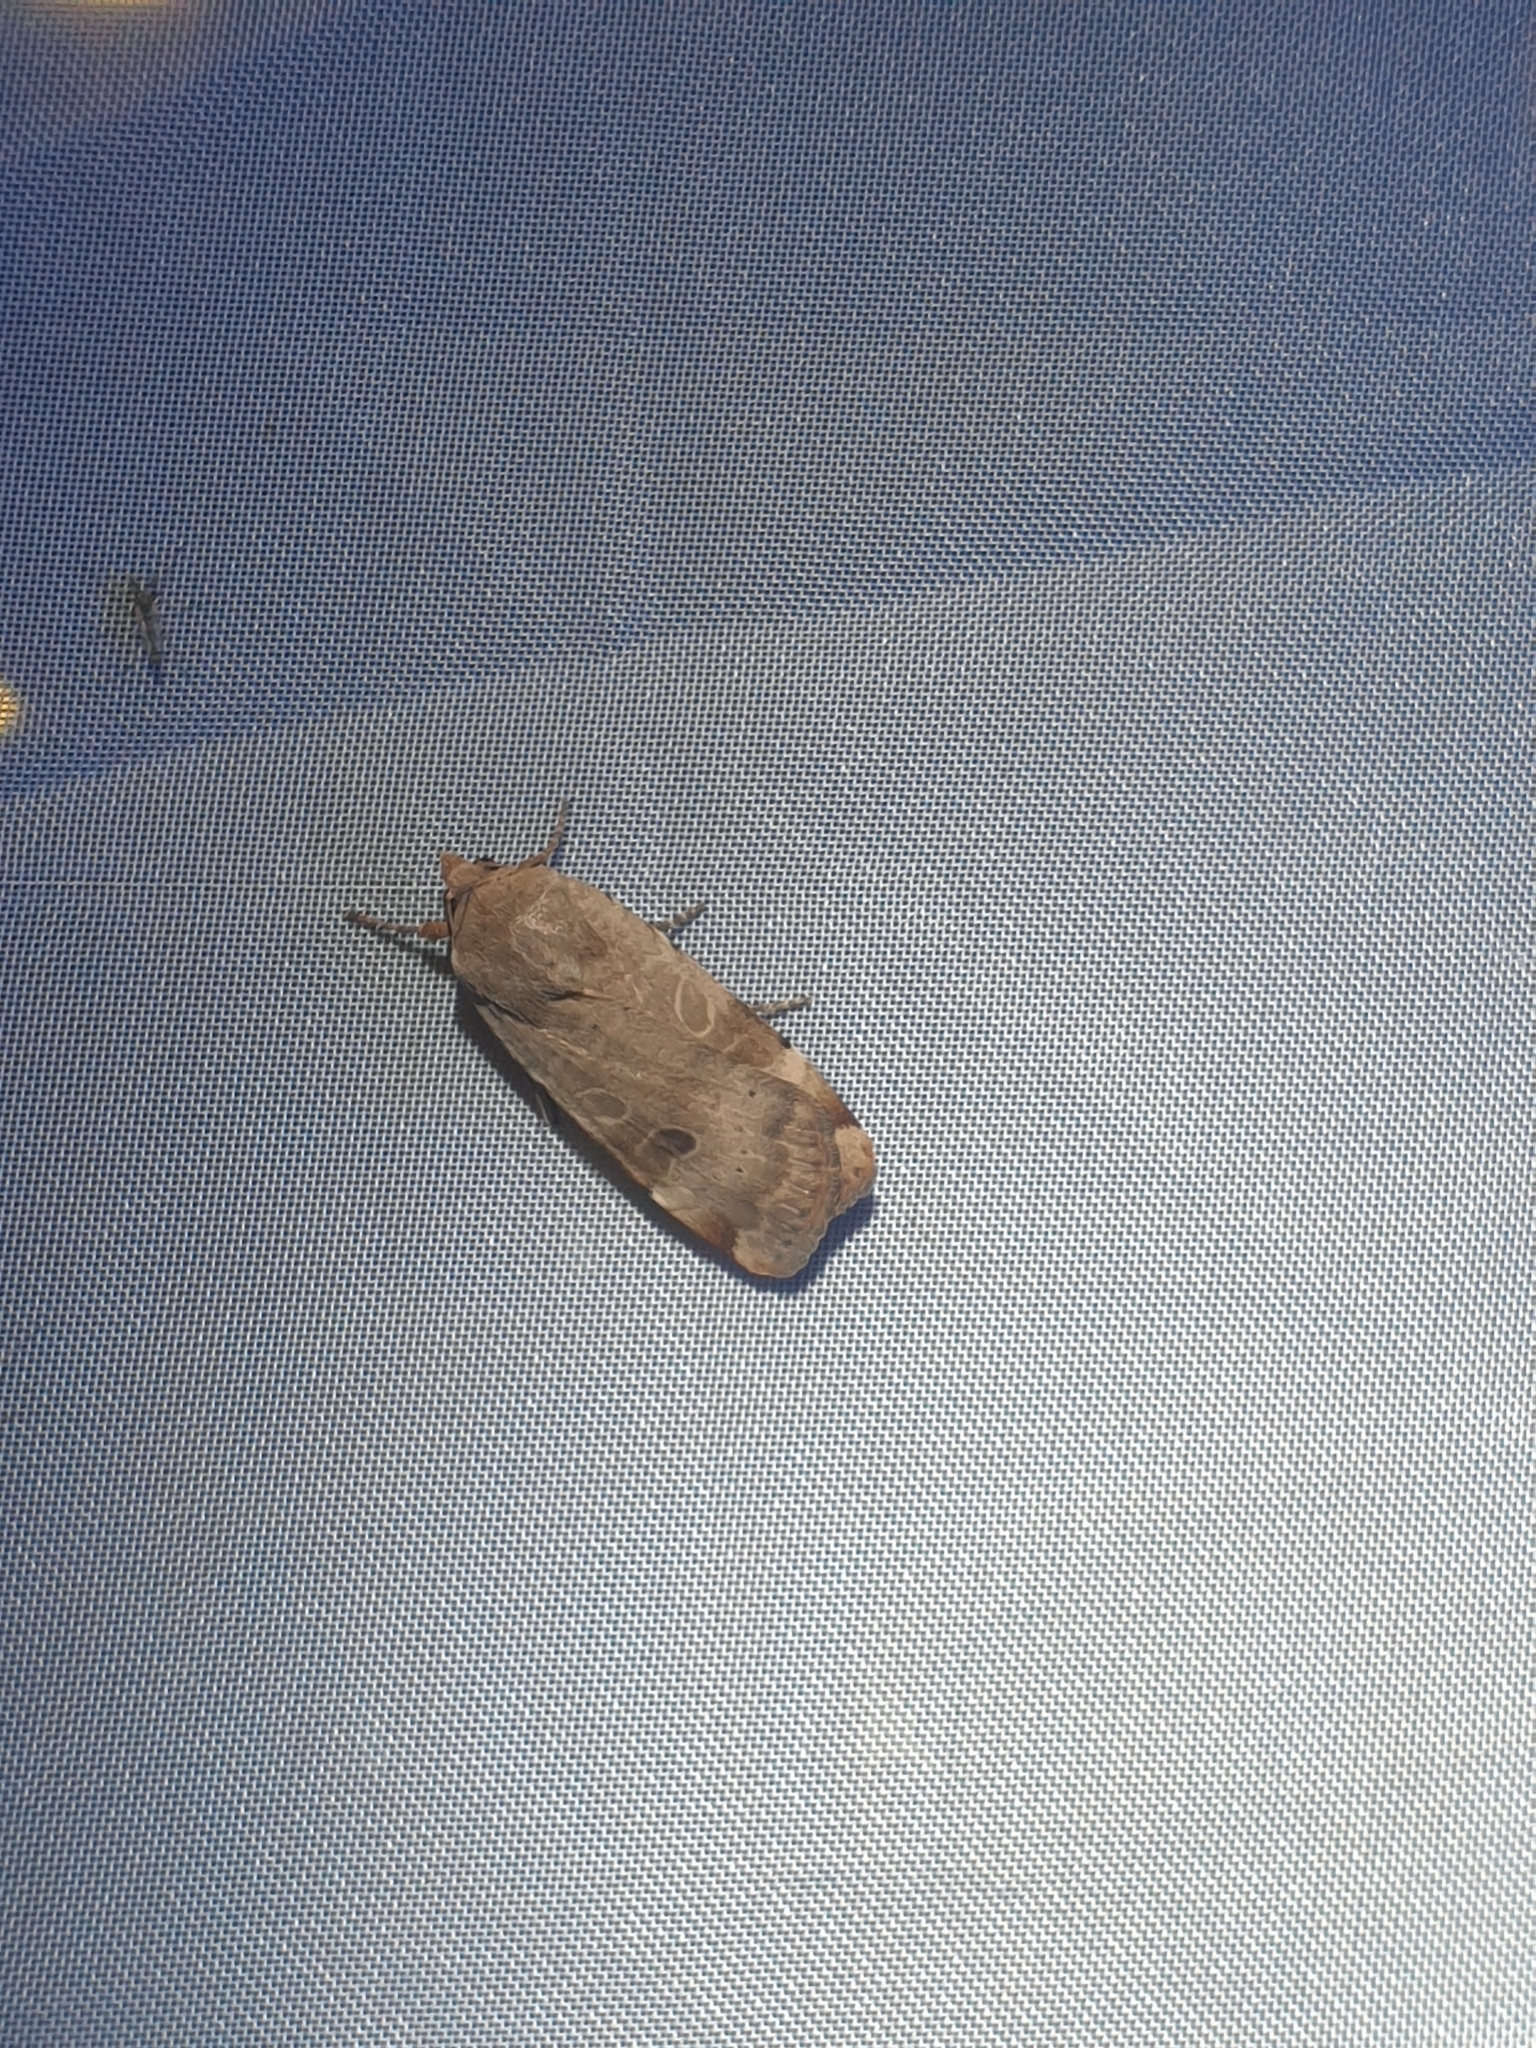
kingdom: Animalia
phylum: Arthropoda
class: Insecta
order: Lepidoptera
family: Noctuidae
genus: Noctua
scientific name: Noctua interposita
